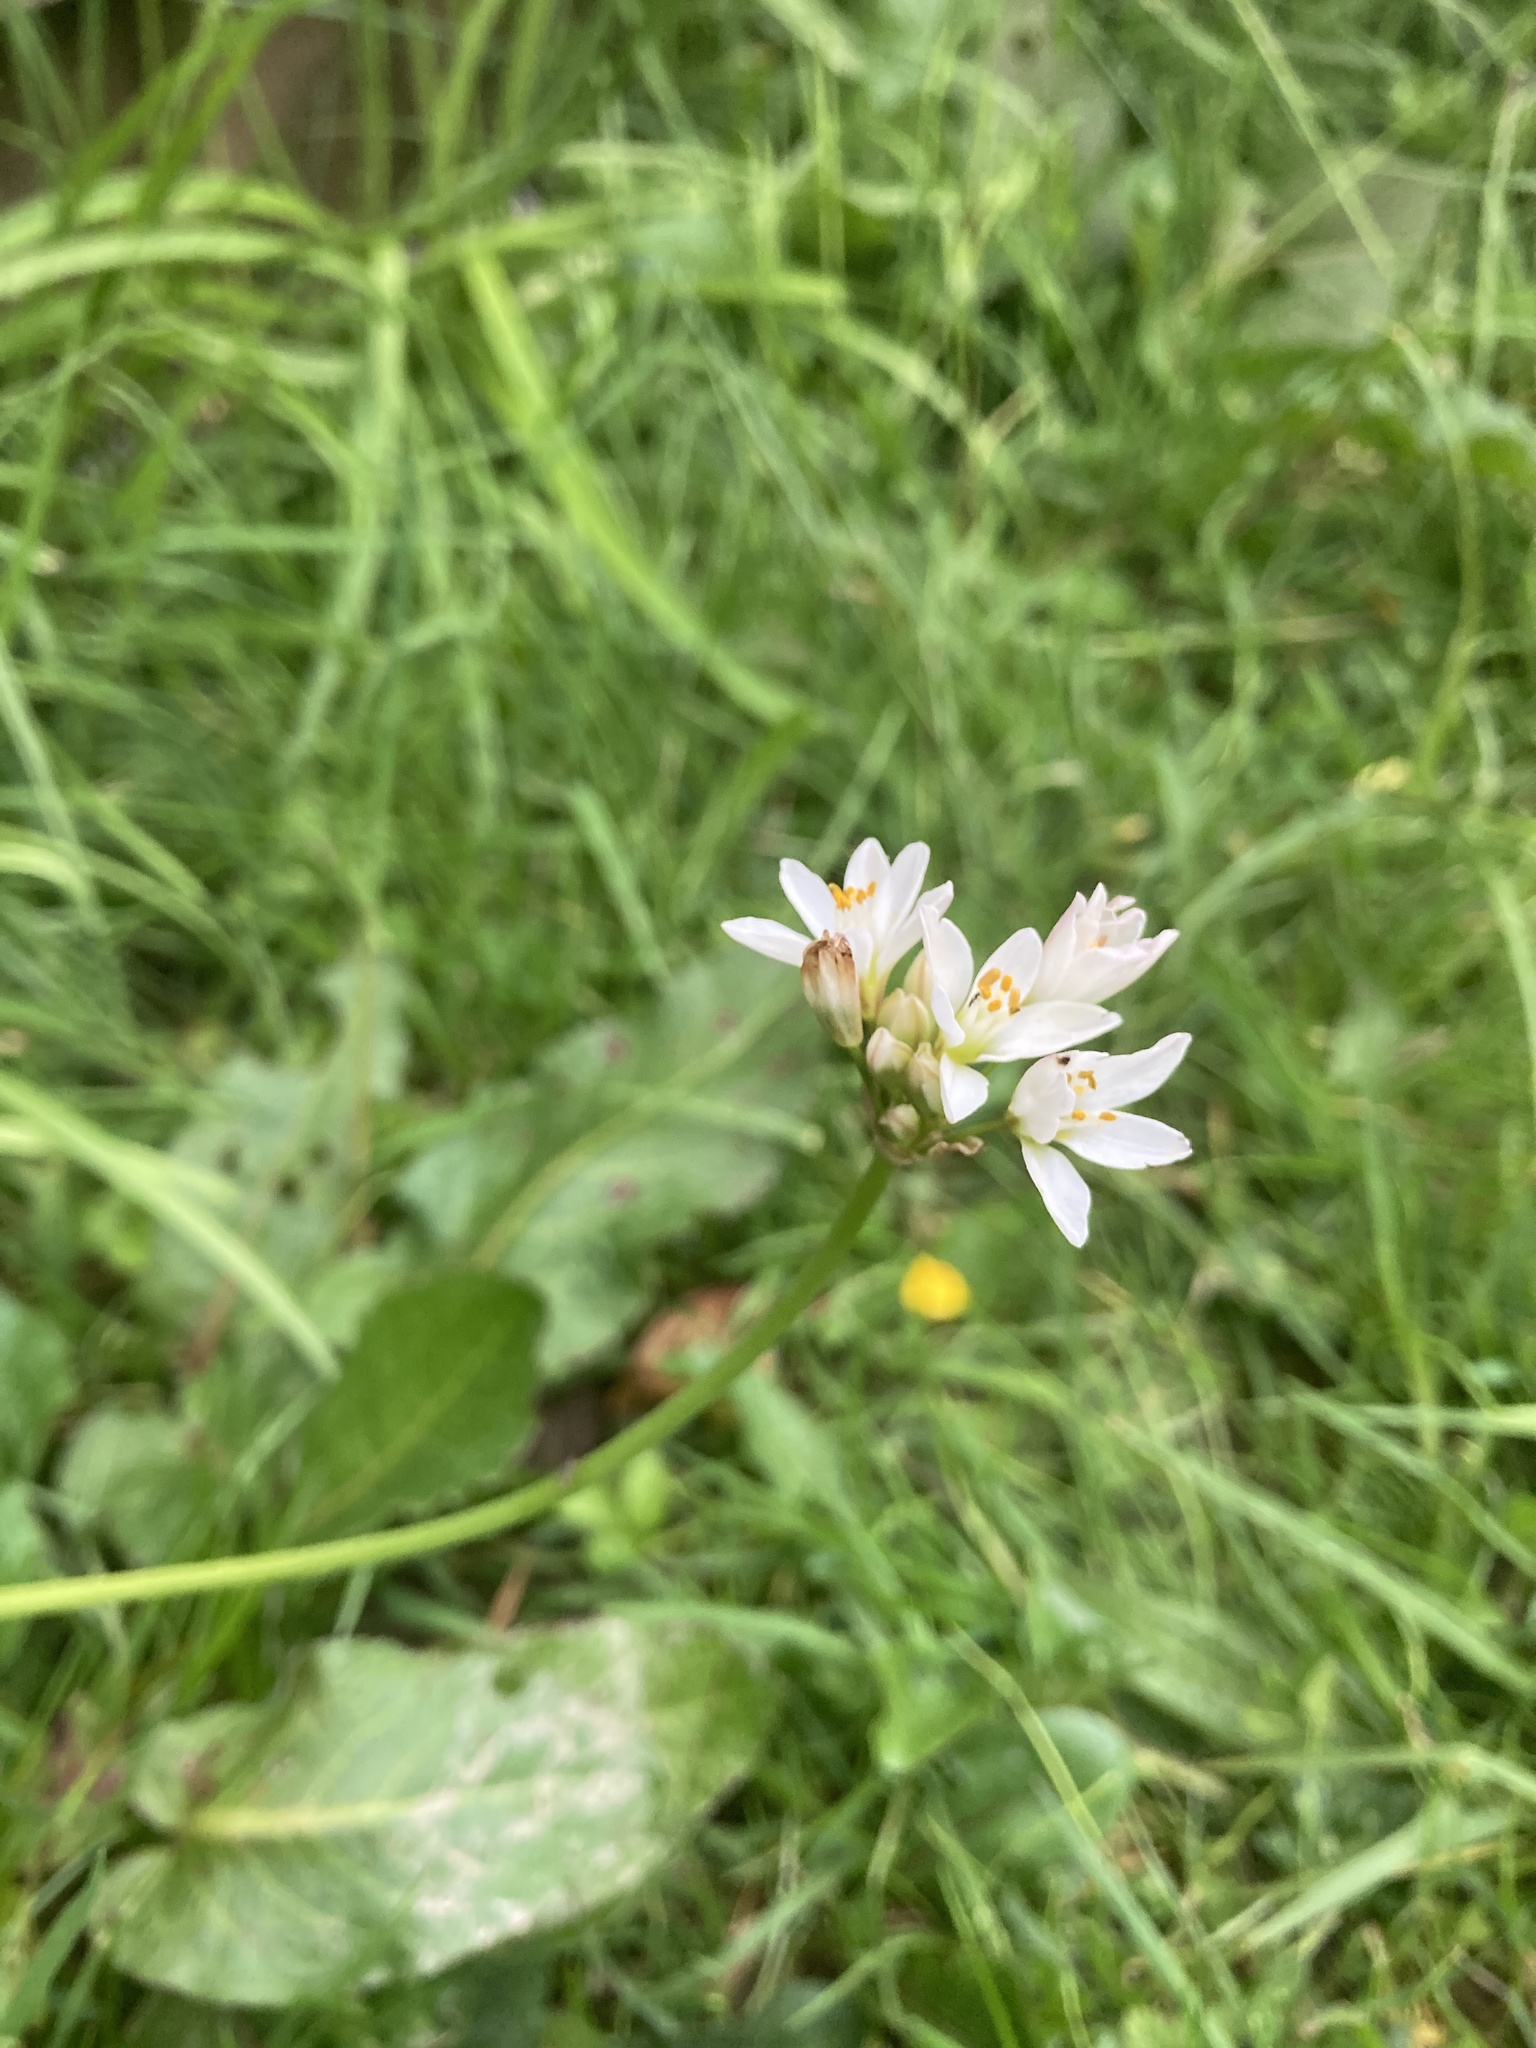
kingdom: Plantae
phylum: Tracheophyta
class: Liliopsida
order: Asparagales
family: Amaryllidaceae
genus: Nothoscordum
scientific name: Nothoscordum gracile
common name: Slender false garlic
